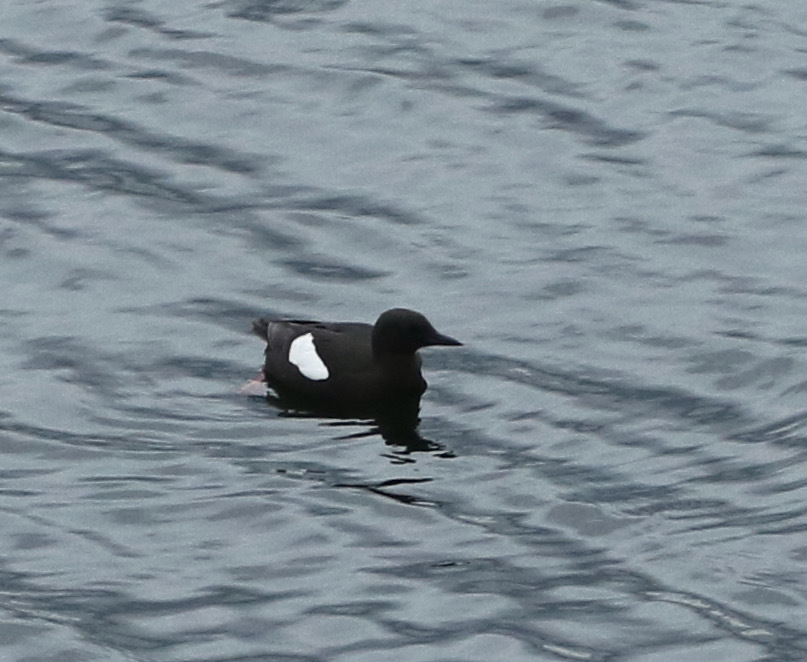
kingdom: Animalia
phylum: Chordata
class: Aves
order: Charadriiformes
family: Alcidae
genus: Cepphus
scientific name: Cepphus grylle
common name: Black guillemot
